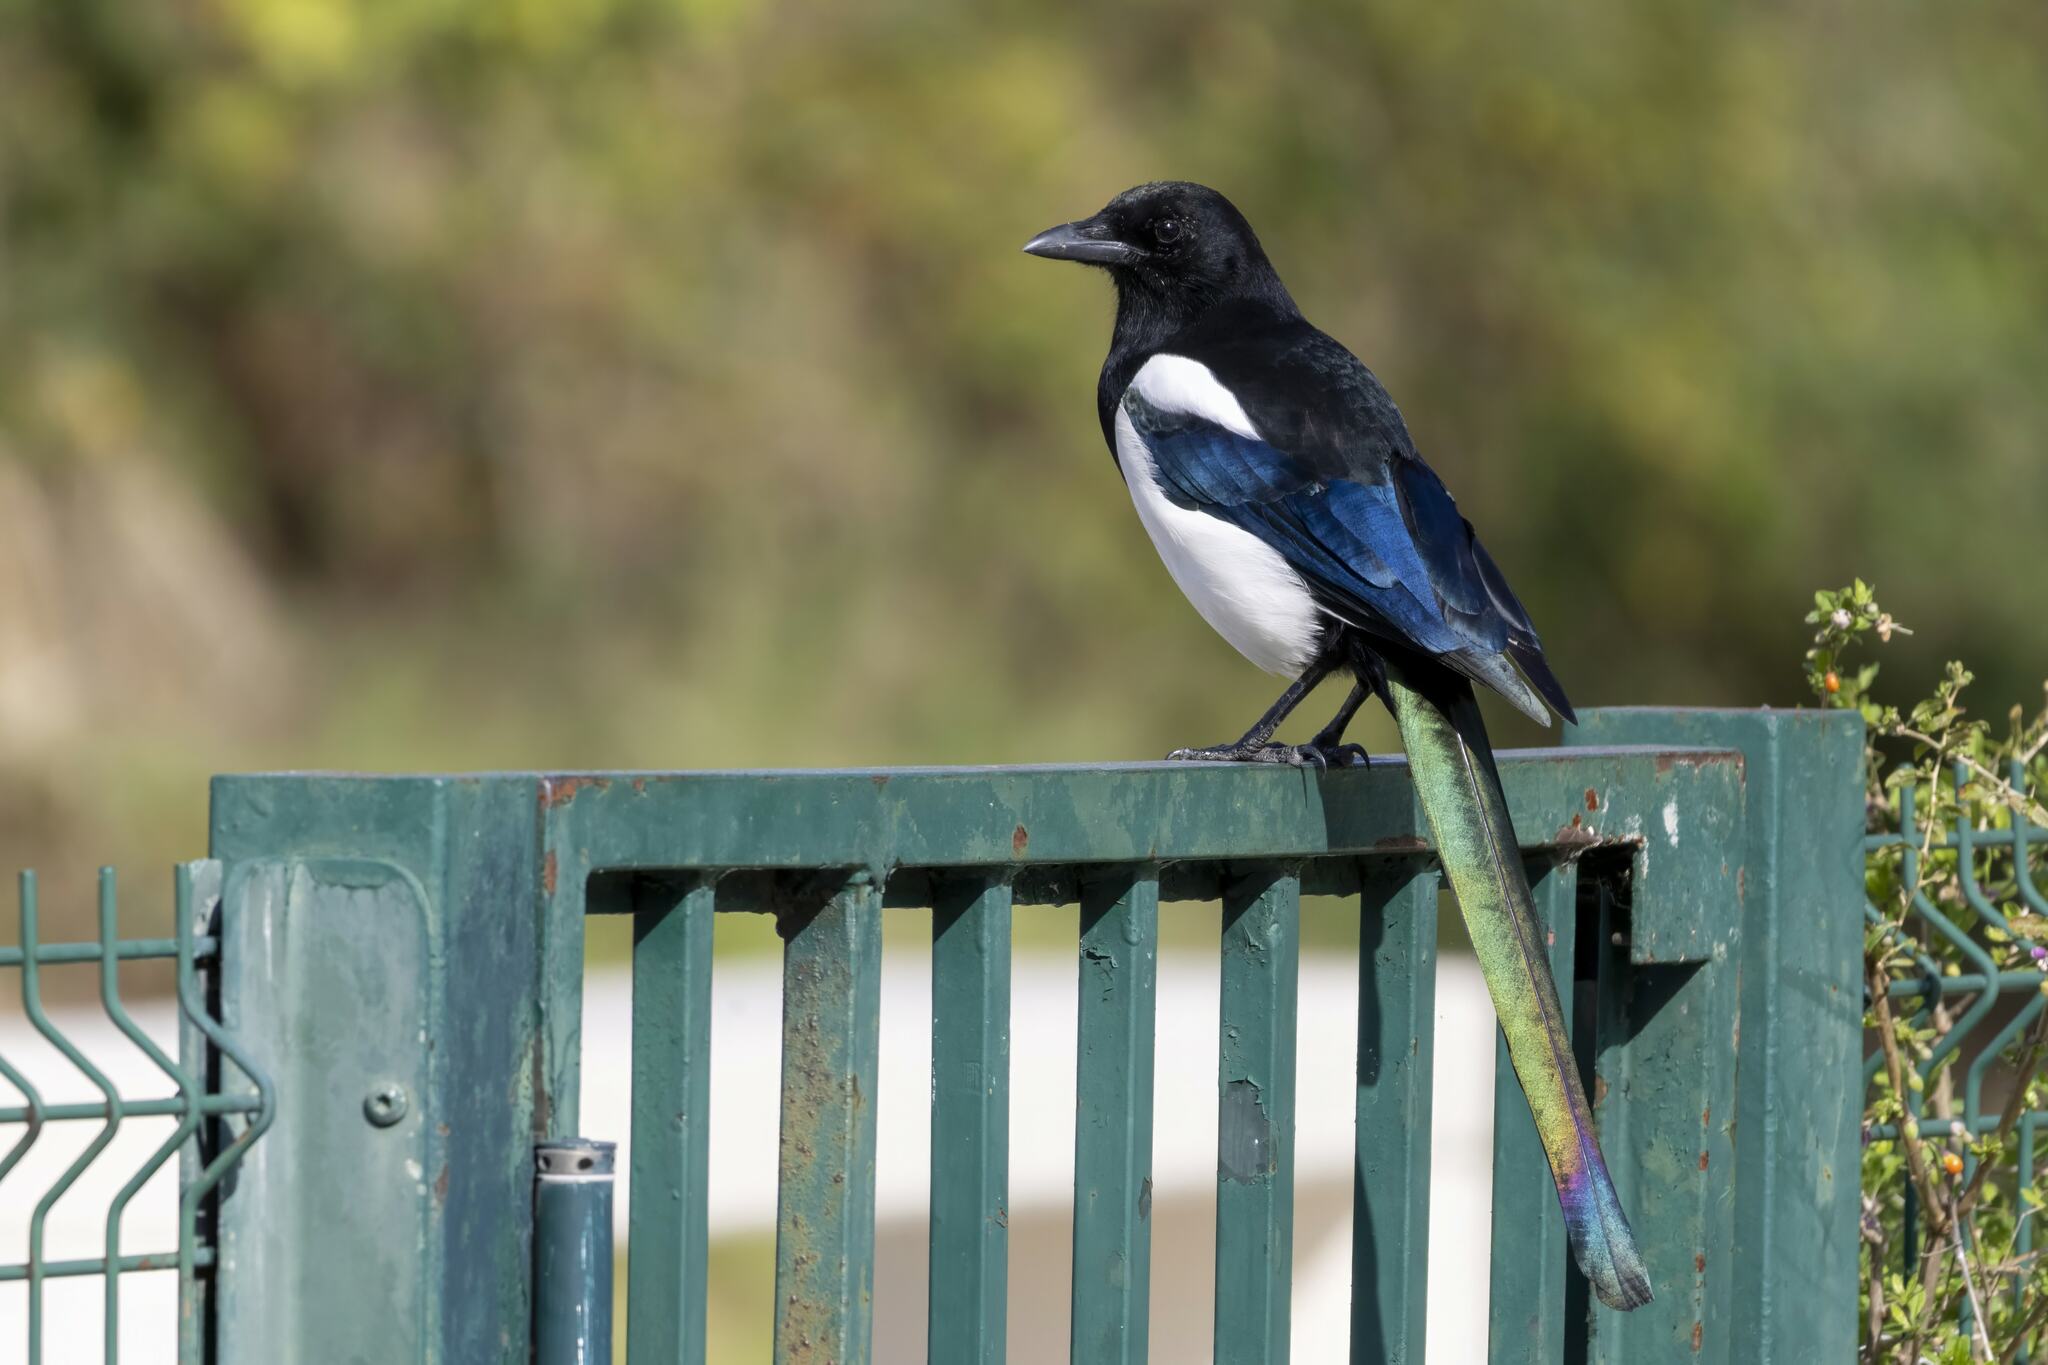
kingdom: Animalia
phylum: Chordata
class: Aves
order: Passeriformes
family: Corvidae
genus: Pica
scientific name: Pica pica
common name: Eurasian magpie
